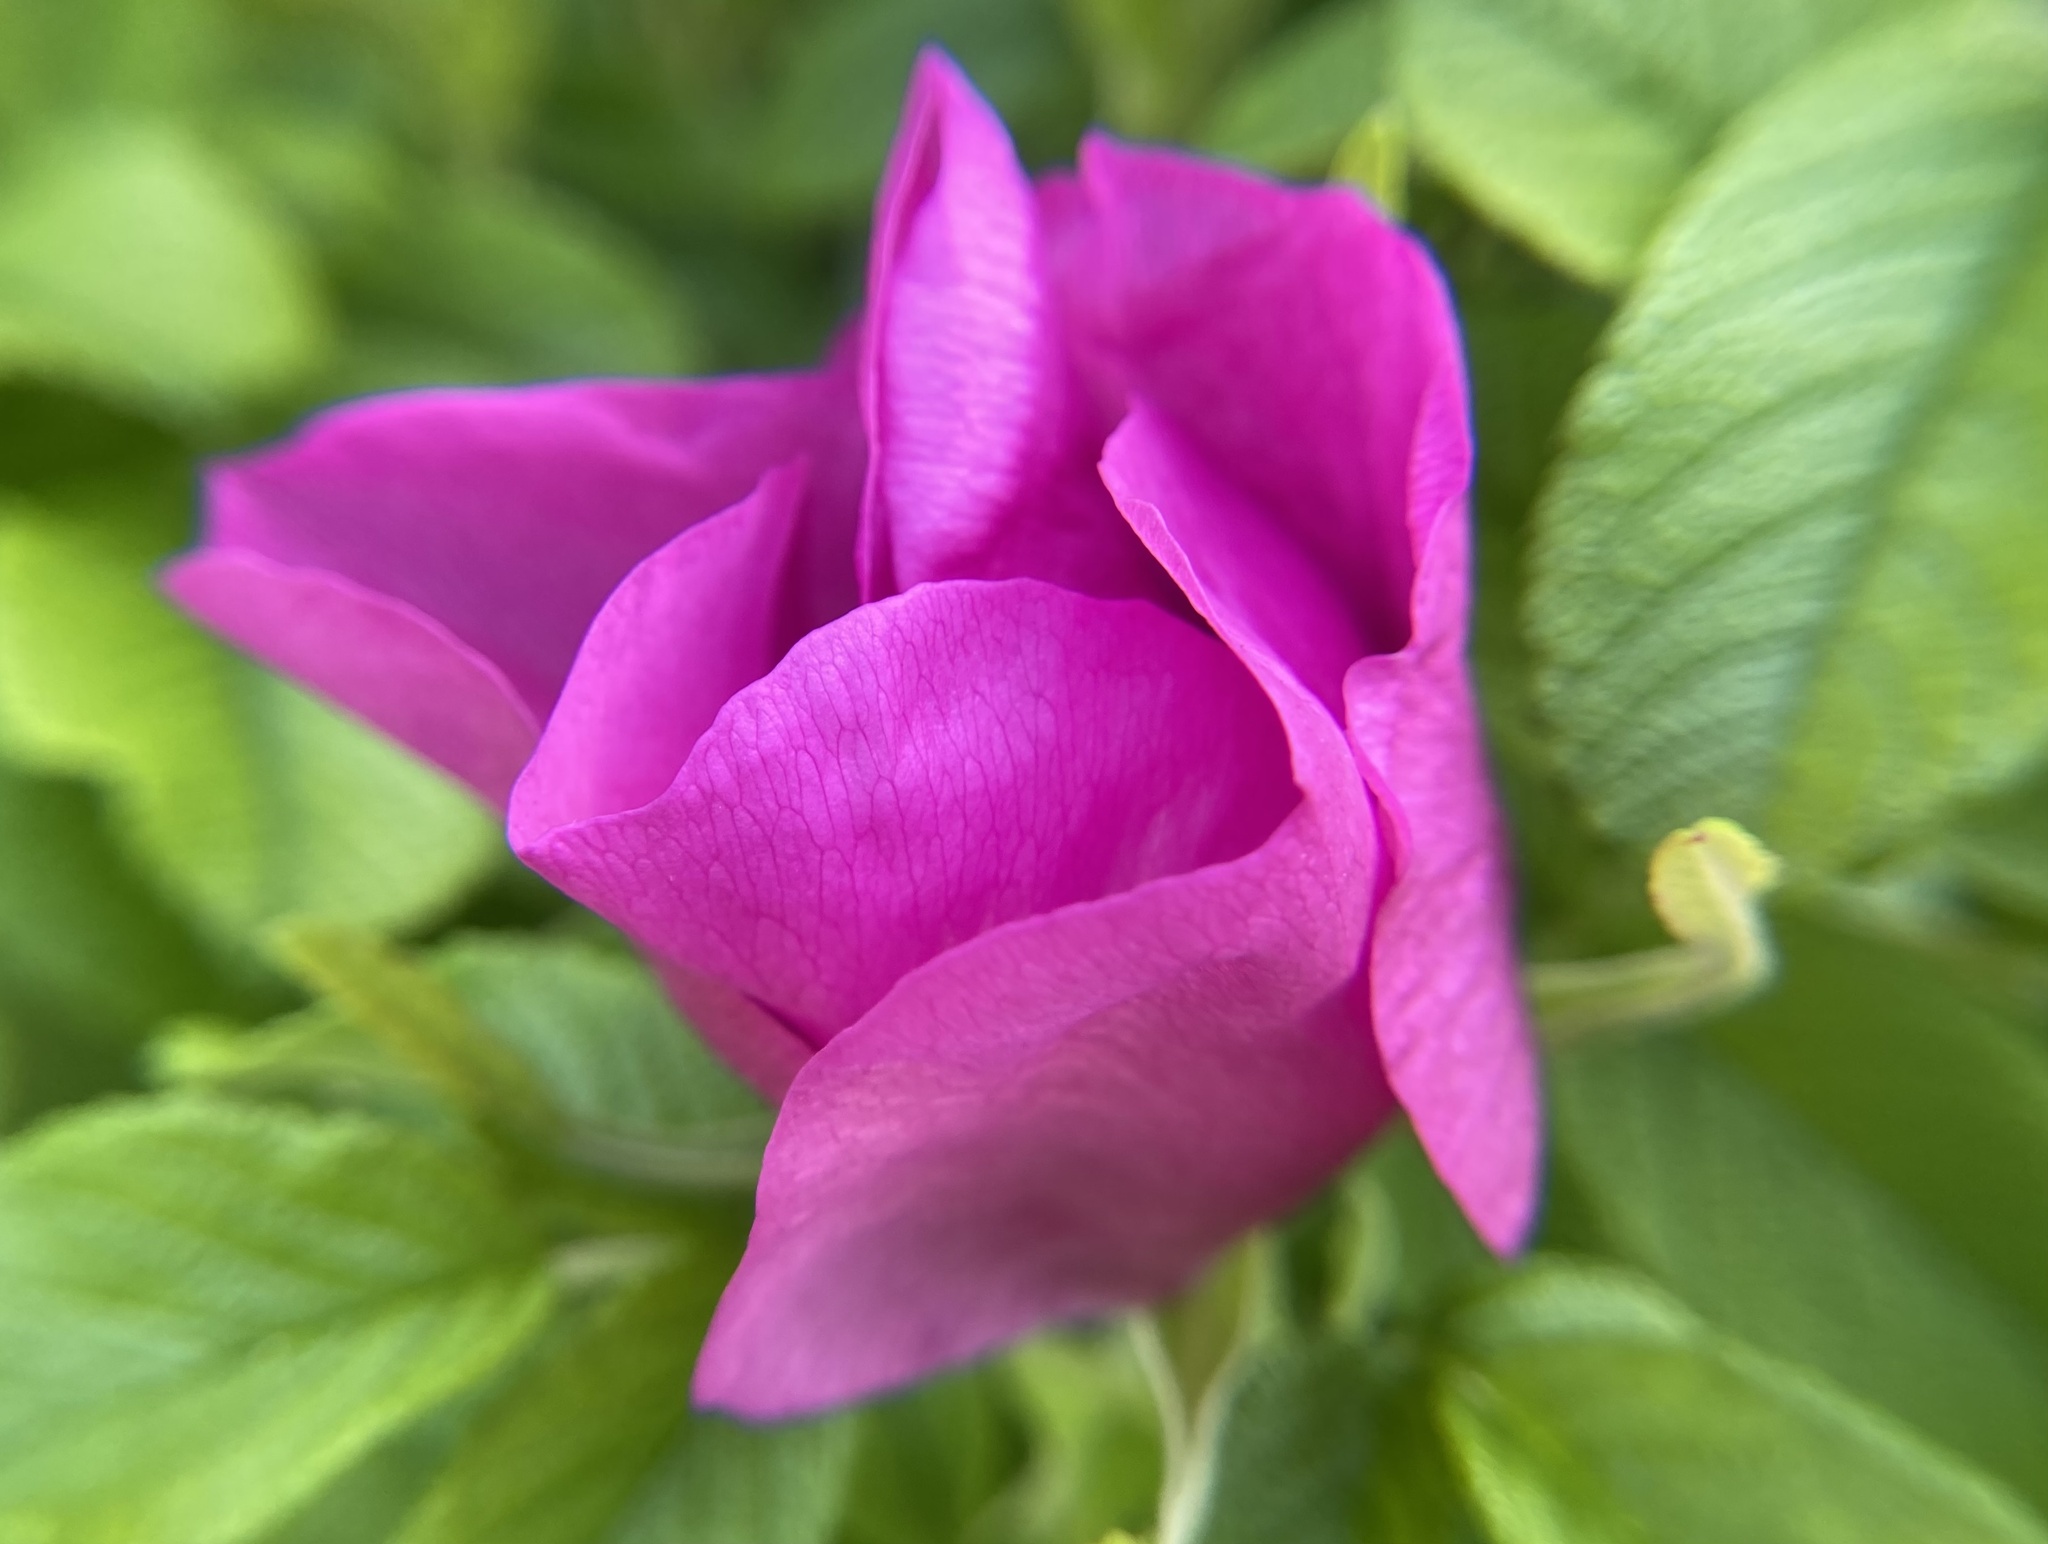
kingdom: Plantae
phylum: Tracheophyta
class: Magnoliopsida
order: Rosales
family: Rosaceae
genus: Rosa
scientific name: Rosa rugosa
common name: Japanese rose
